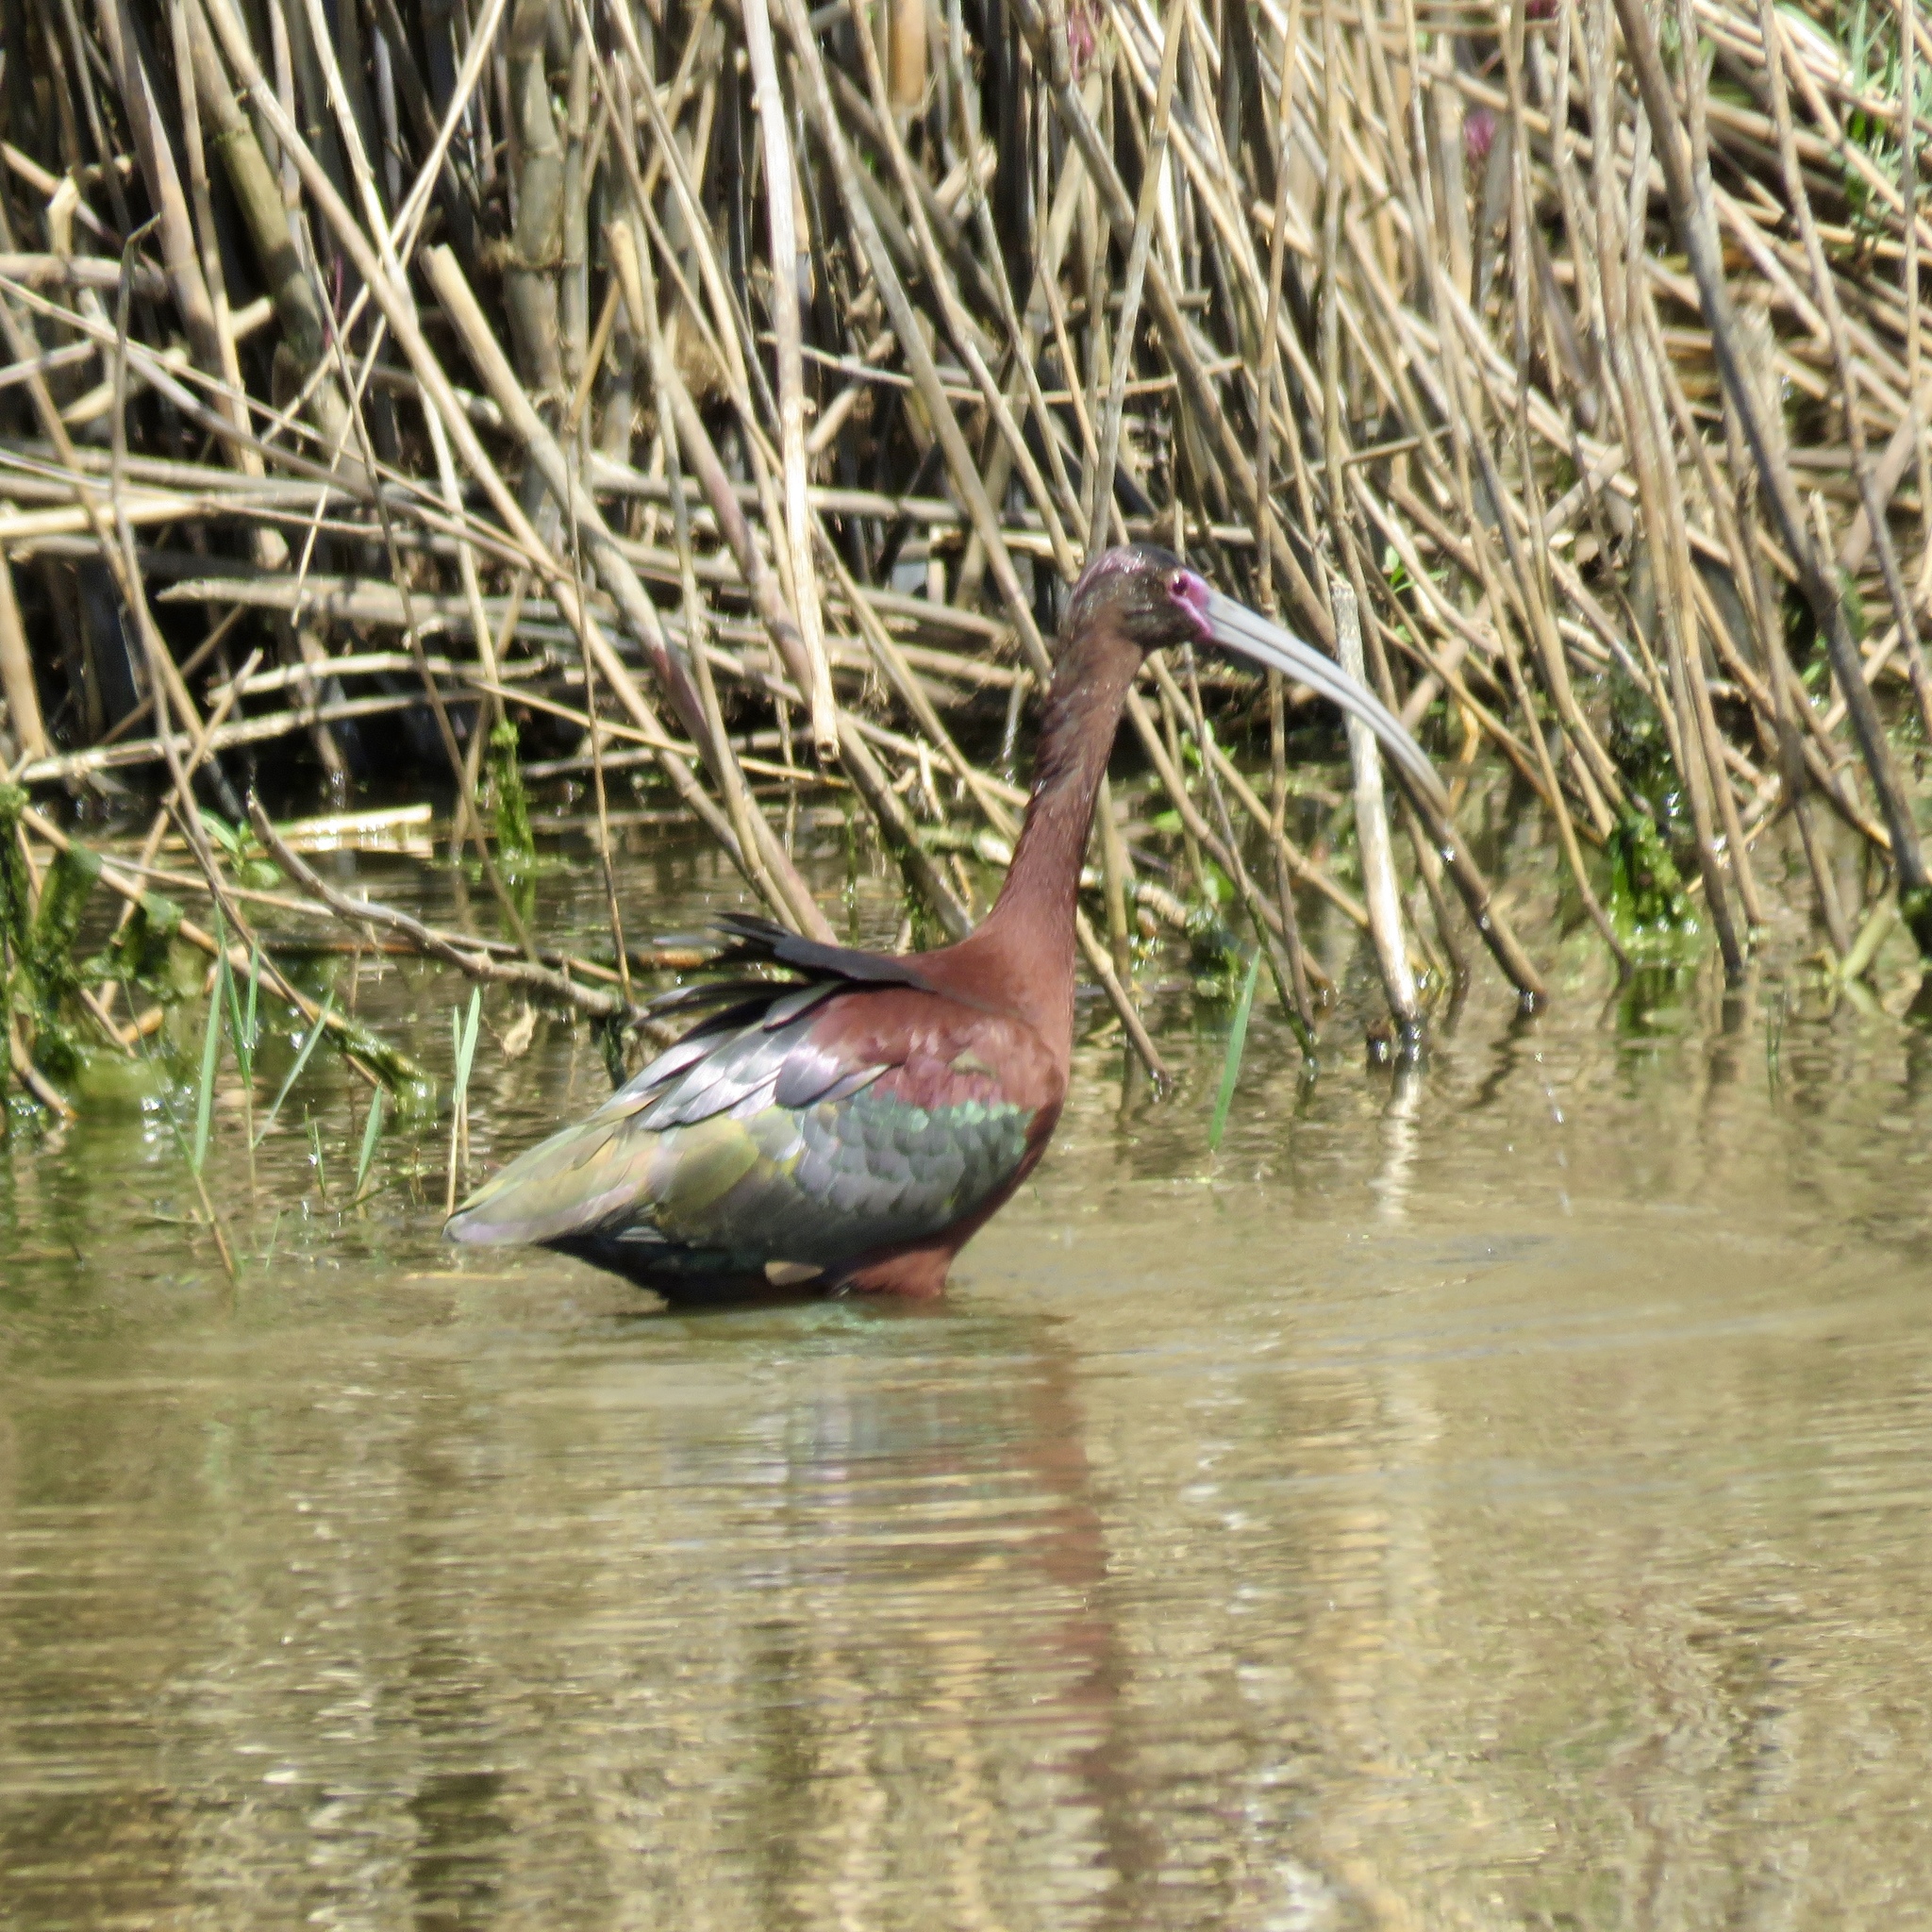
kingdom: Animalia
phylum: Chordata
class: Aves
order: Pelecaniformes
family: Threskiornithidae
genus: Plegadis
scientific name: Plegadis chihi
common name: White-faced ibis
